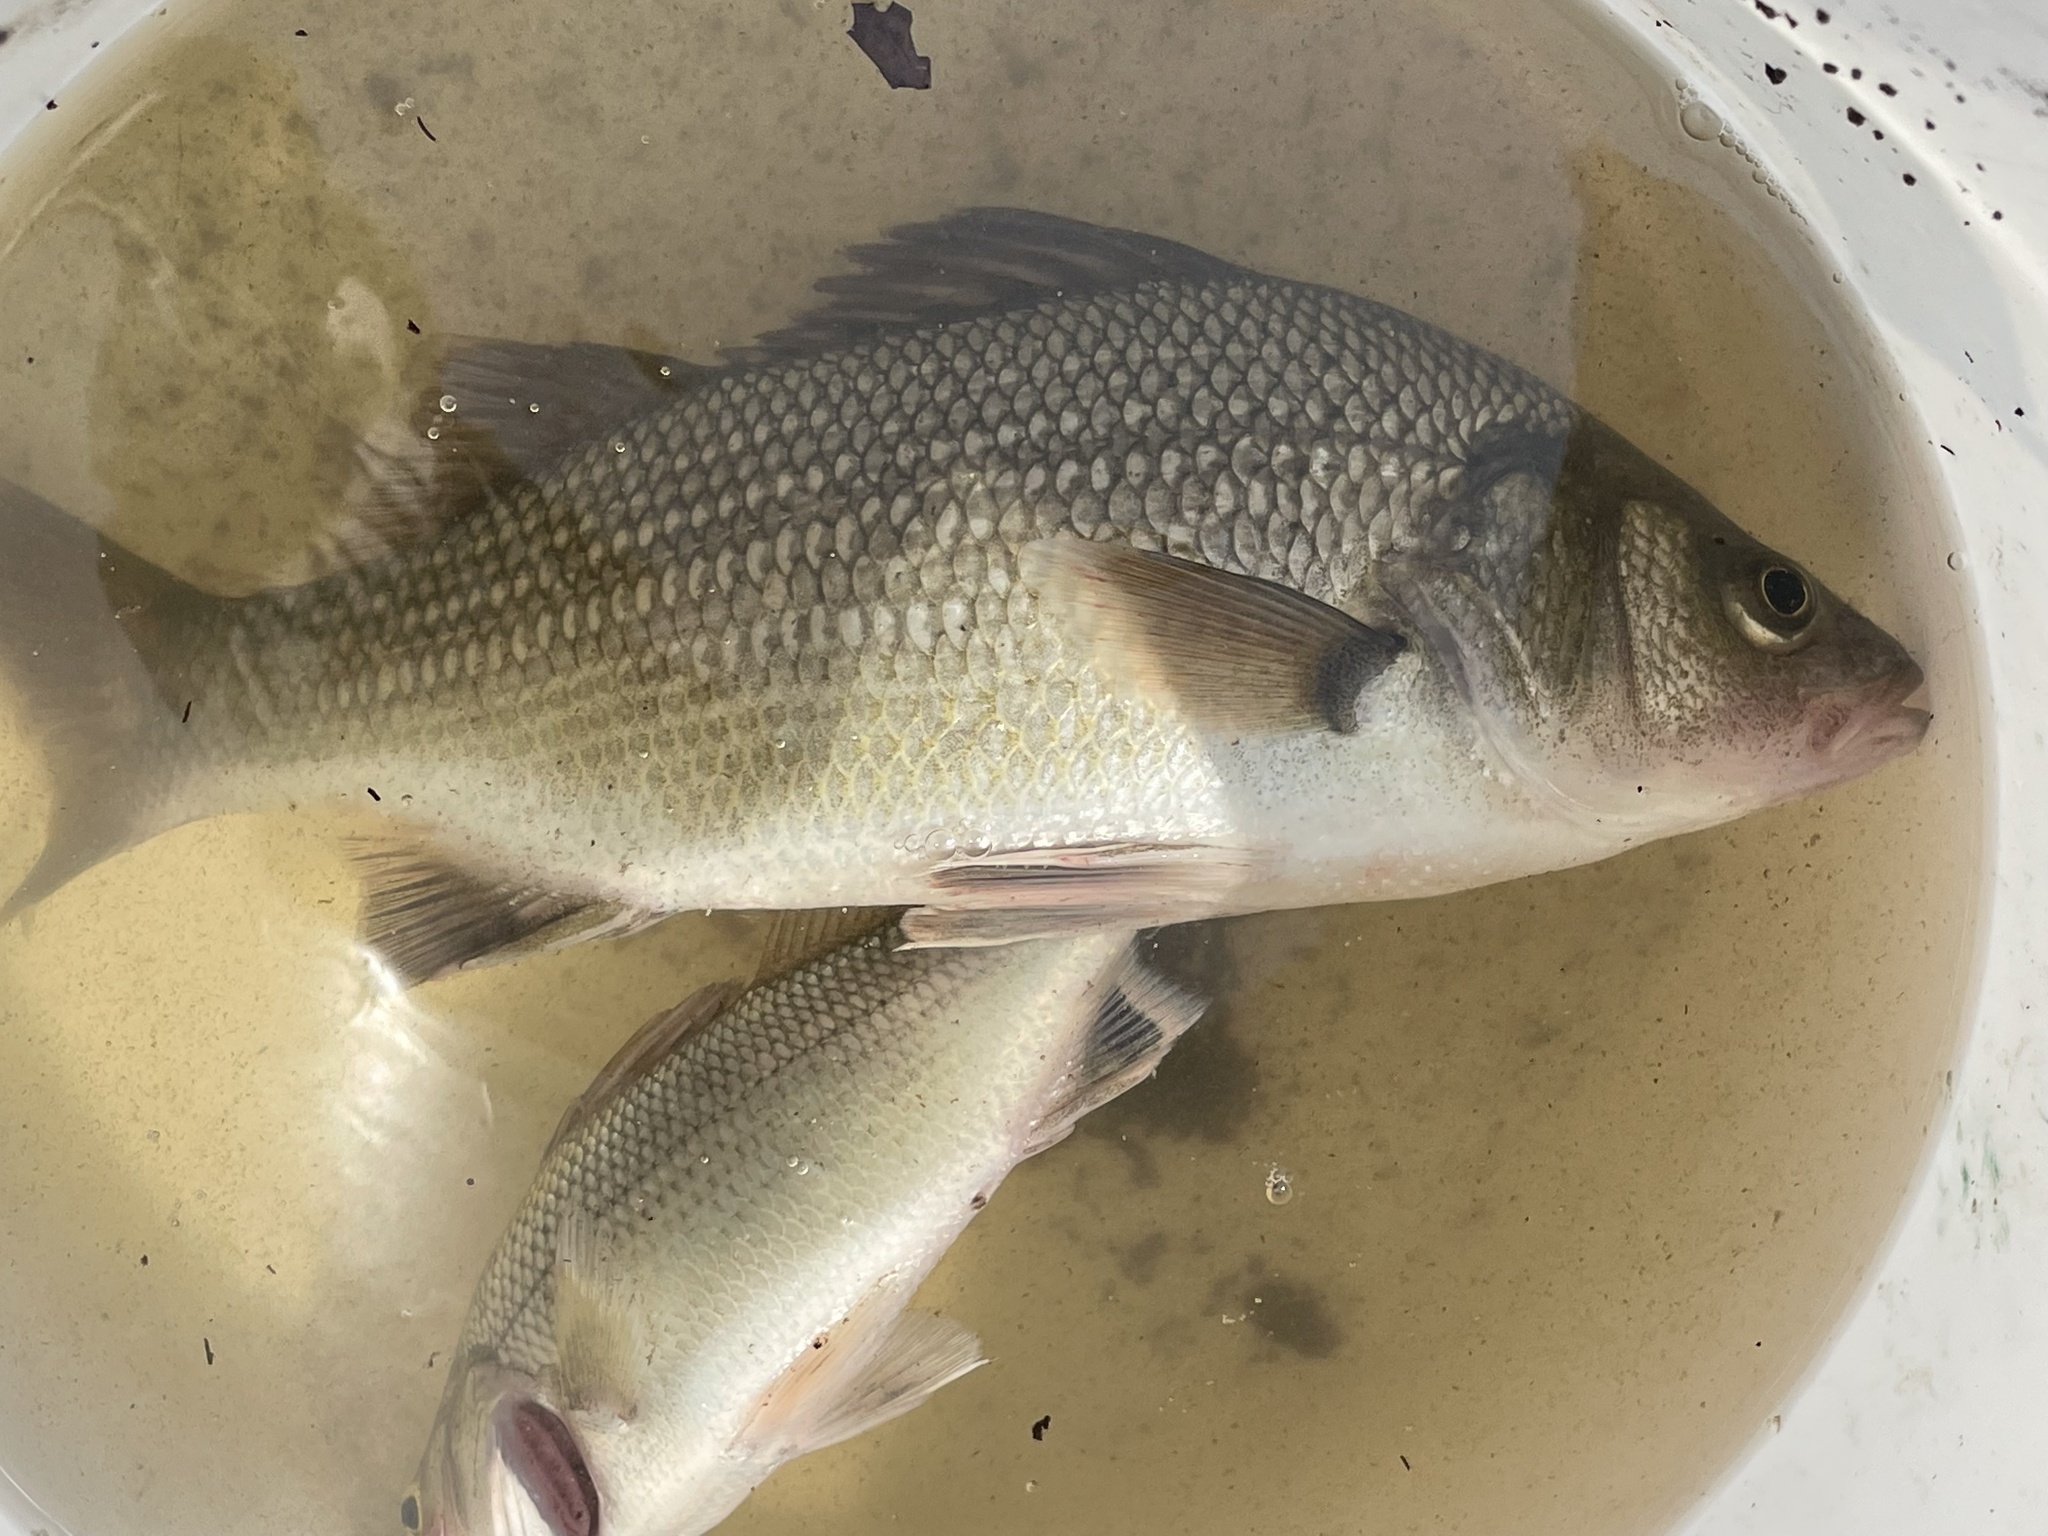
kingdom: Animalia
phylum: Chordata
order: Perciformes
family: Moronidae
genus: Morone
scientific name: Morone americana
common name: White perch
